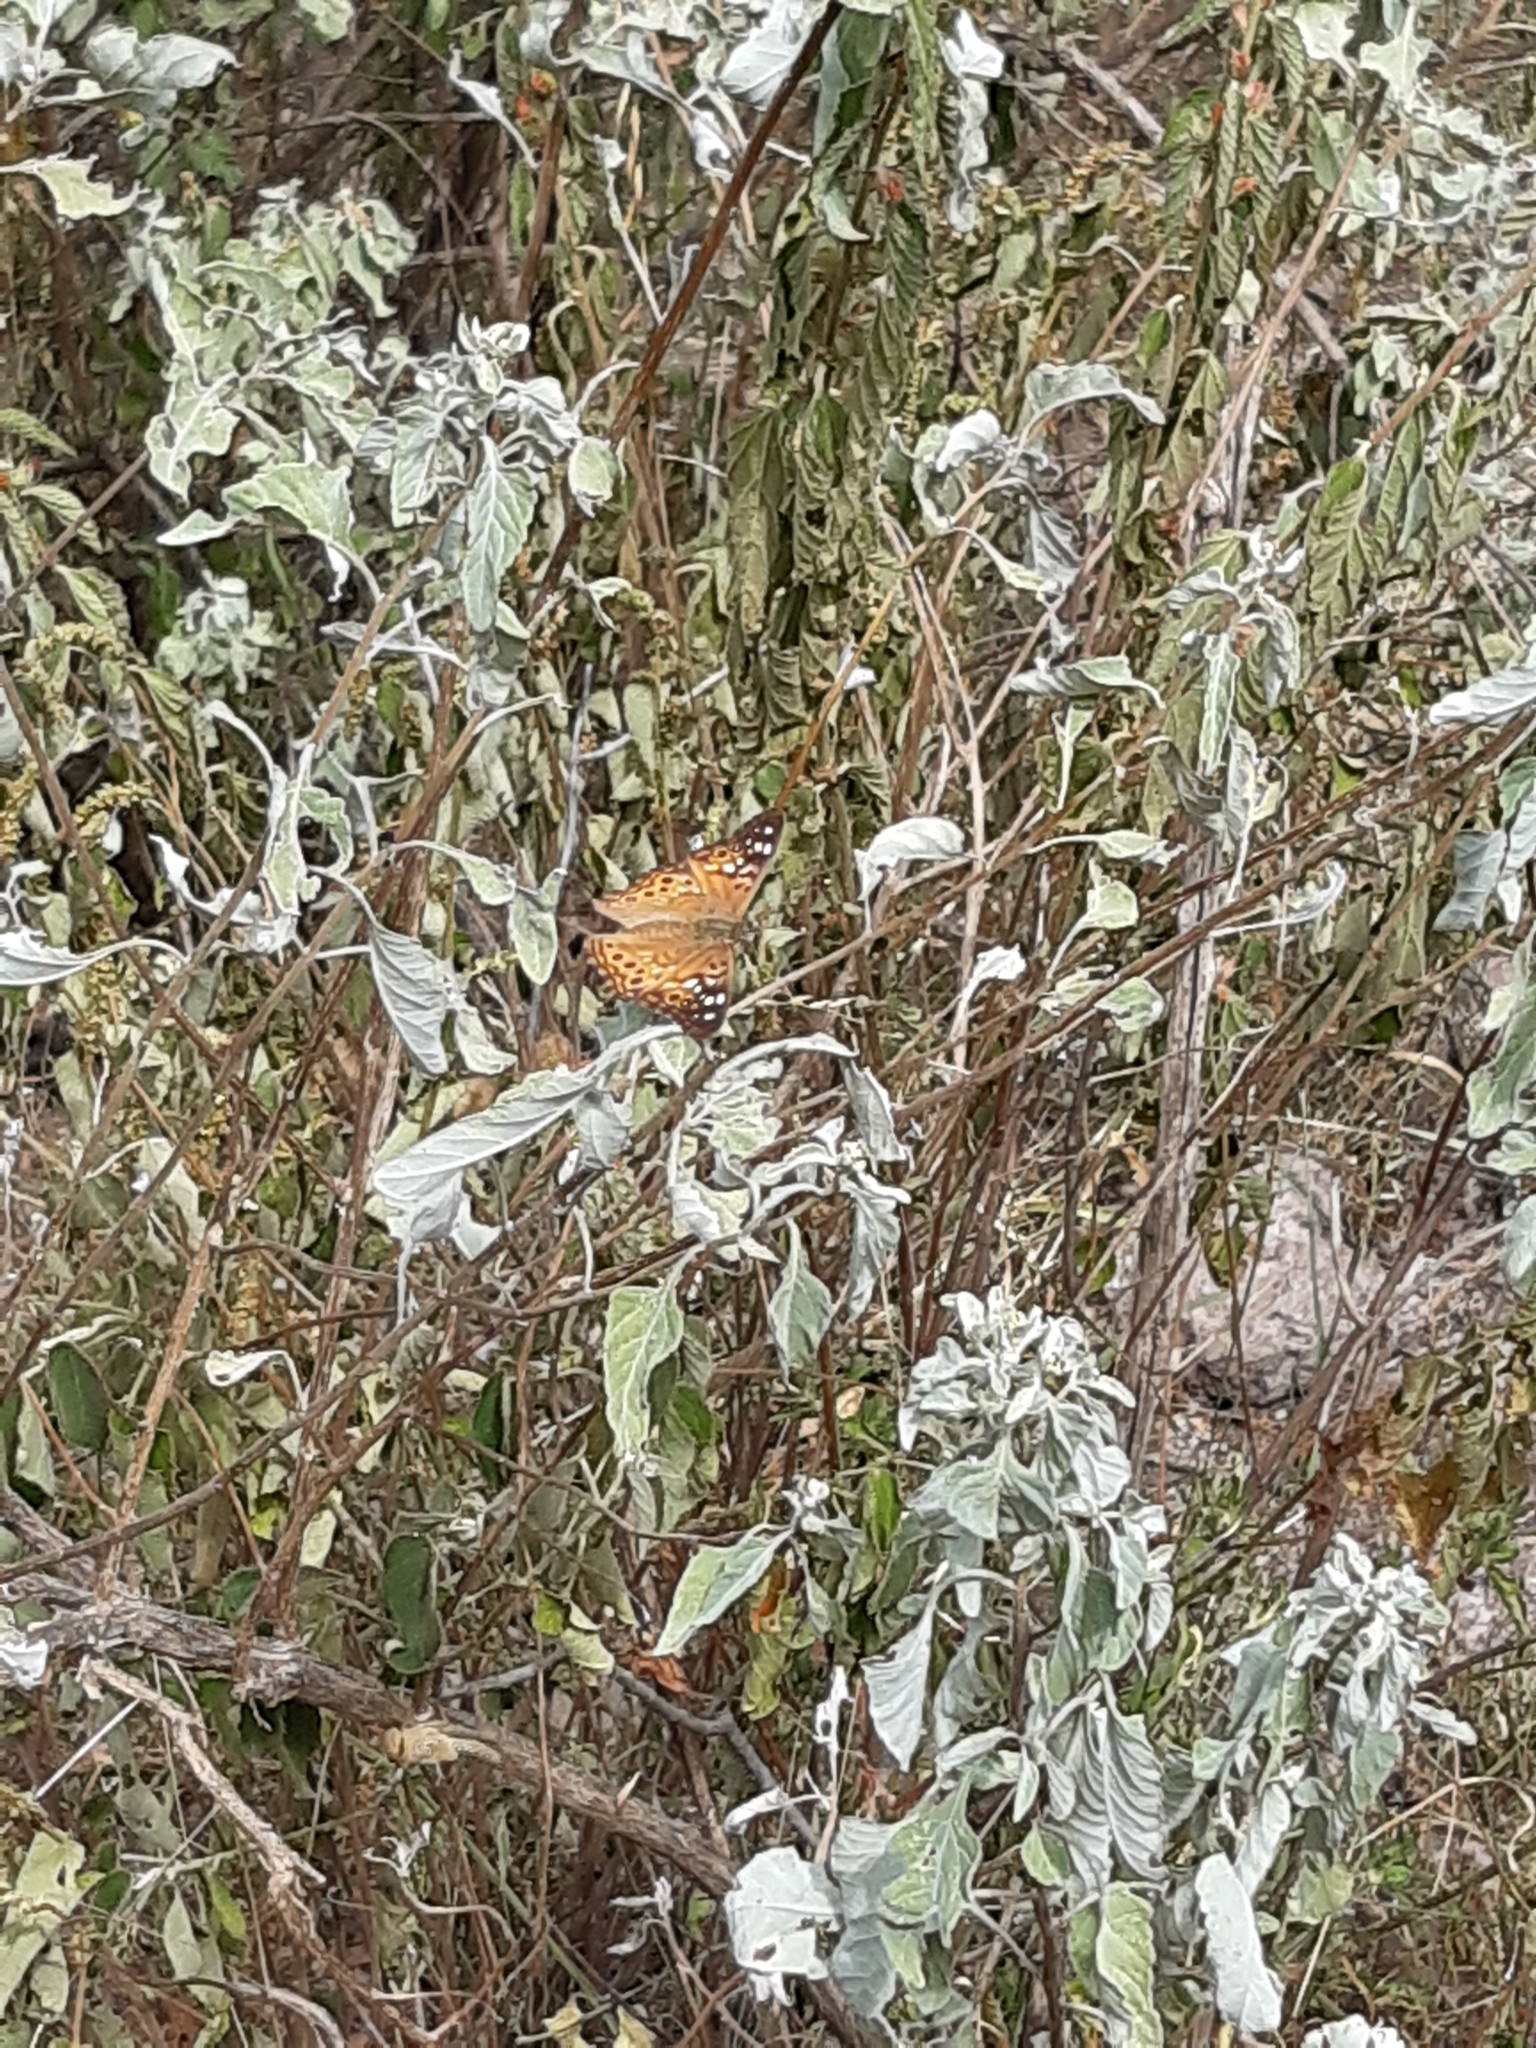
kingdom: Animalia
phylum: Arthropoda
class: Insecta
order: Lepidoptera
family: Nymphalidae
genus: Asterocampa
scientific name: Asterocampa celtis
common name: Hackberry emperor
